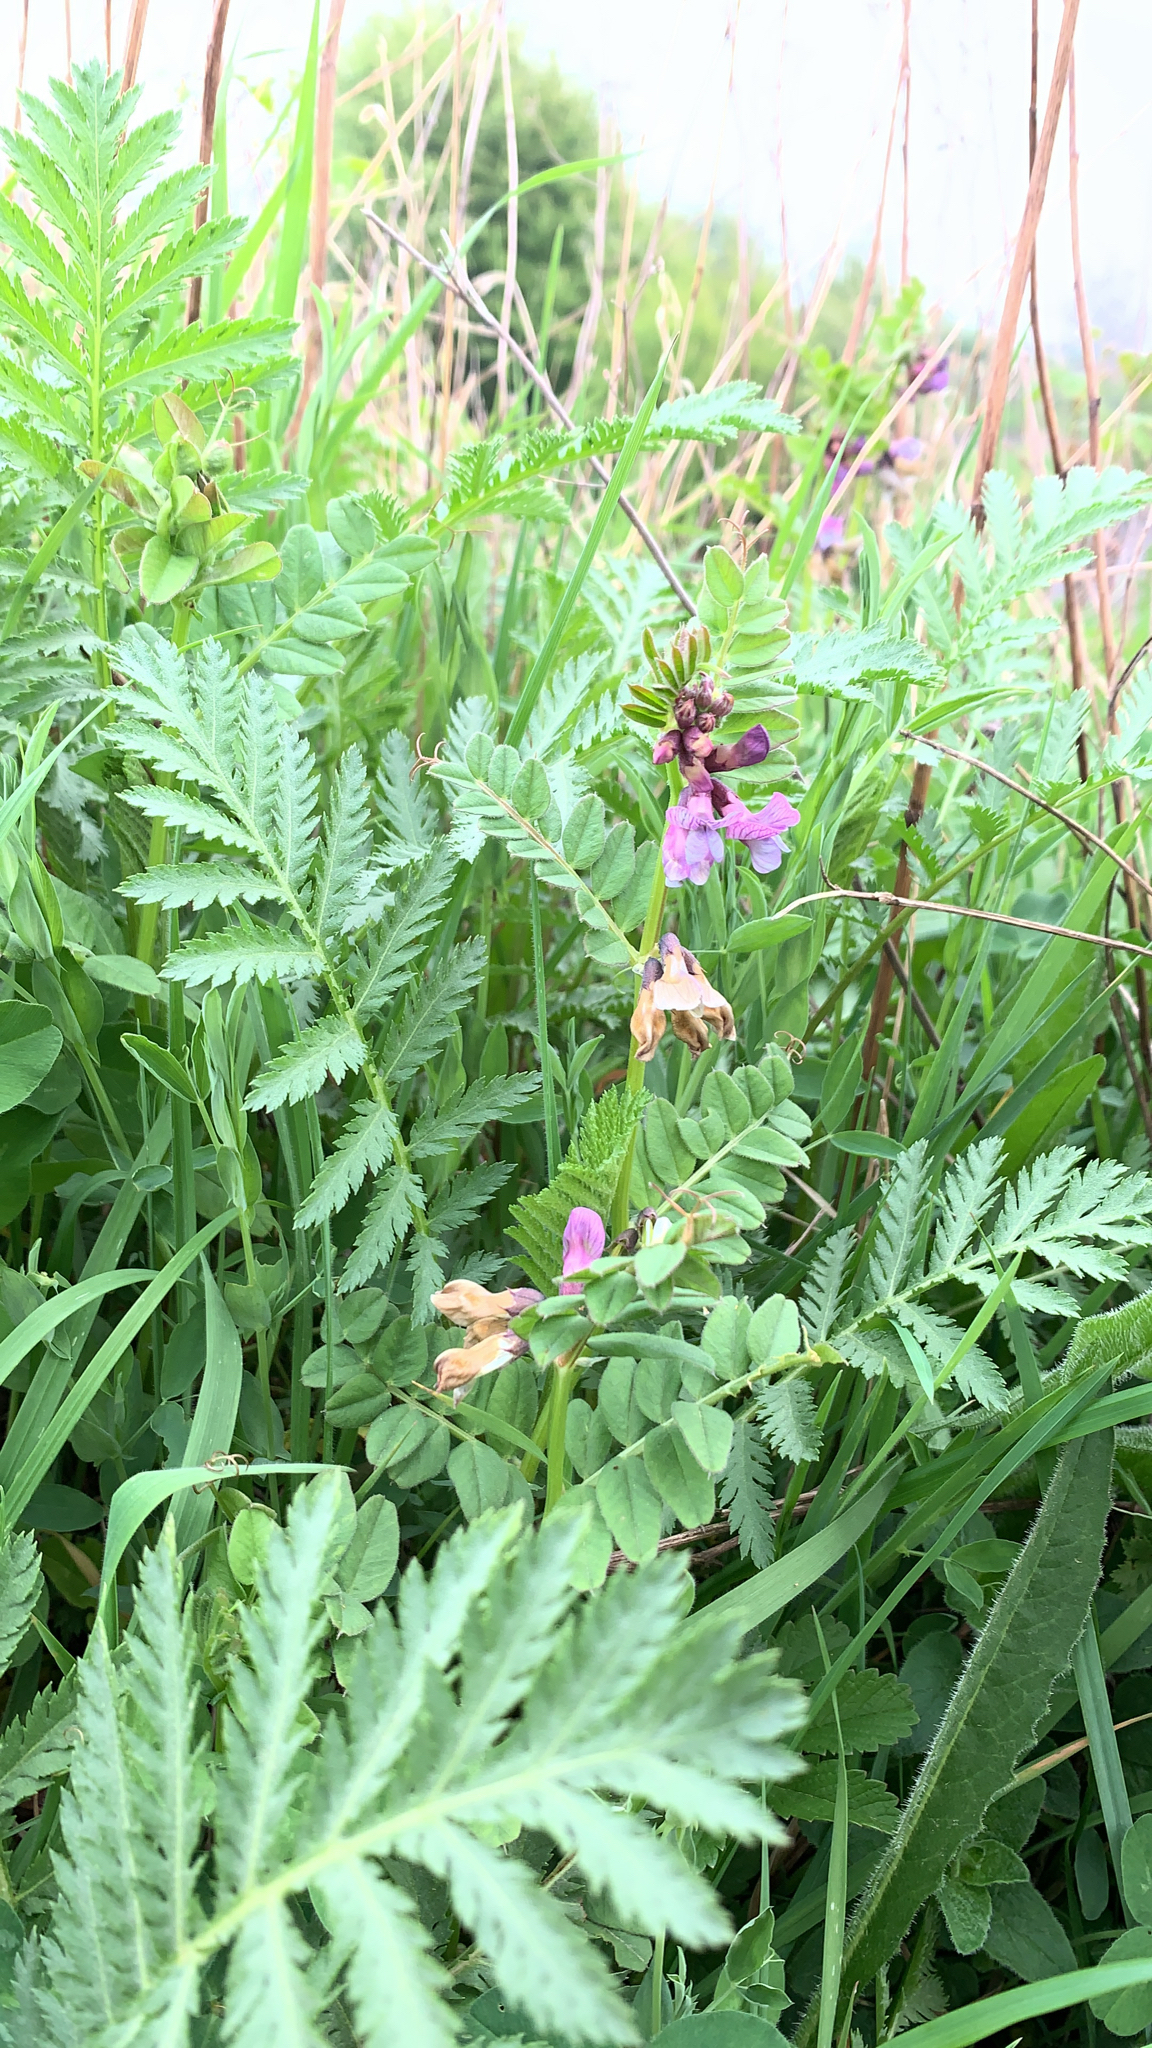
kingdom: Plantae
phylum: Tracheophyta
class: Magnoliopsida
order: Fabales
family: Fabaceae
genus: Vicia
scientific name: Vicia sepium
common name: Bush vetch
